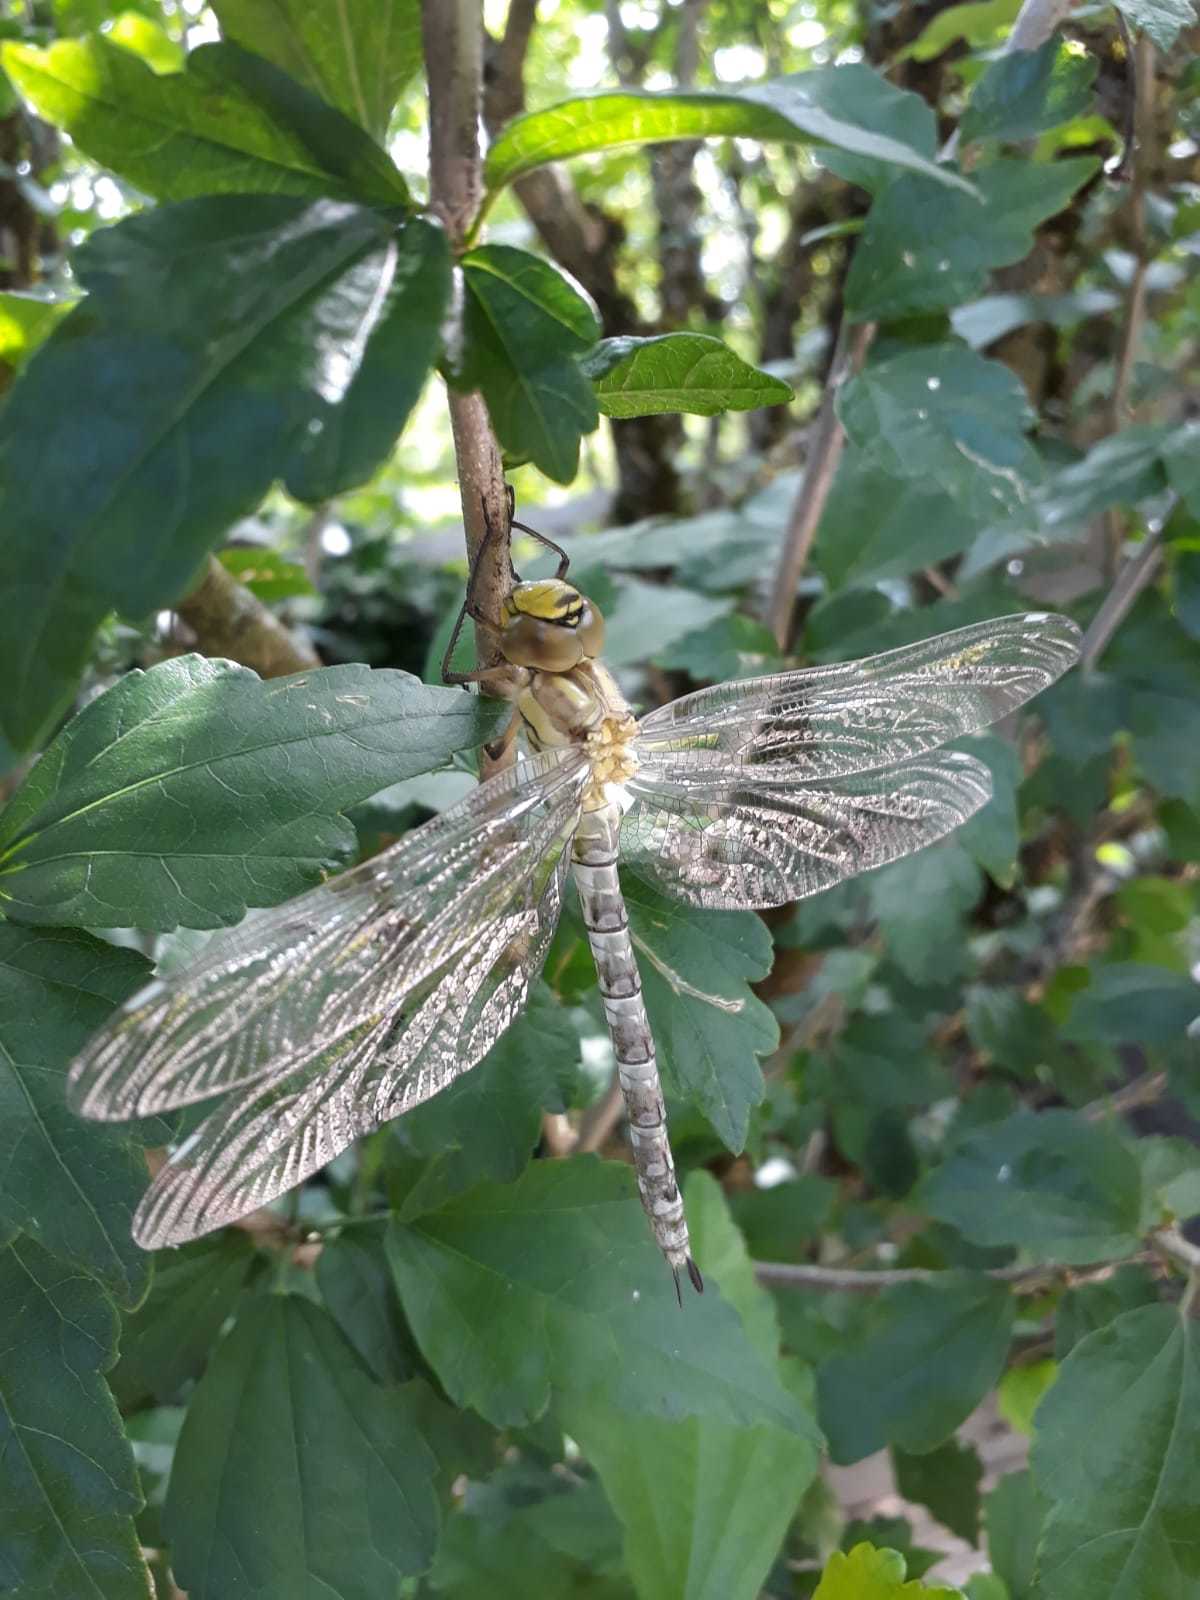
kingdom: Animalia
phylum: Arthropoda
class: Insecta
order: Odonata
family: Aeshnidae
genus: Aeshna
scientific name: Aeshna cyanea
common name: Southern hawker
